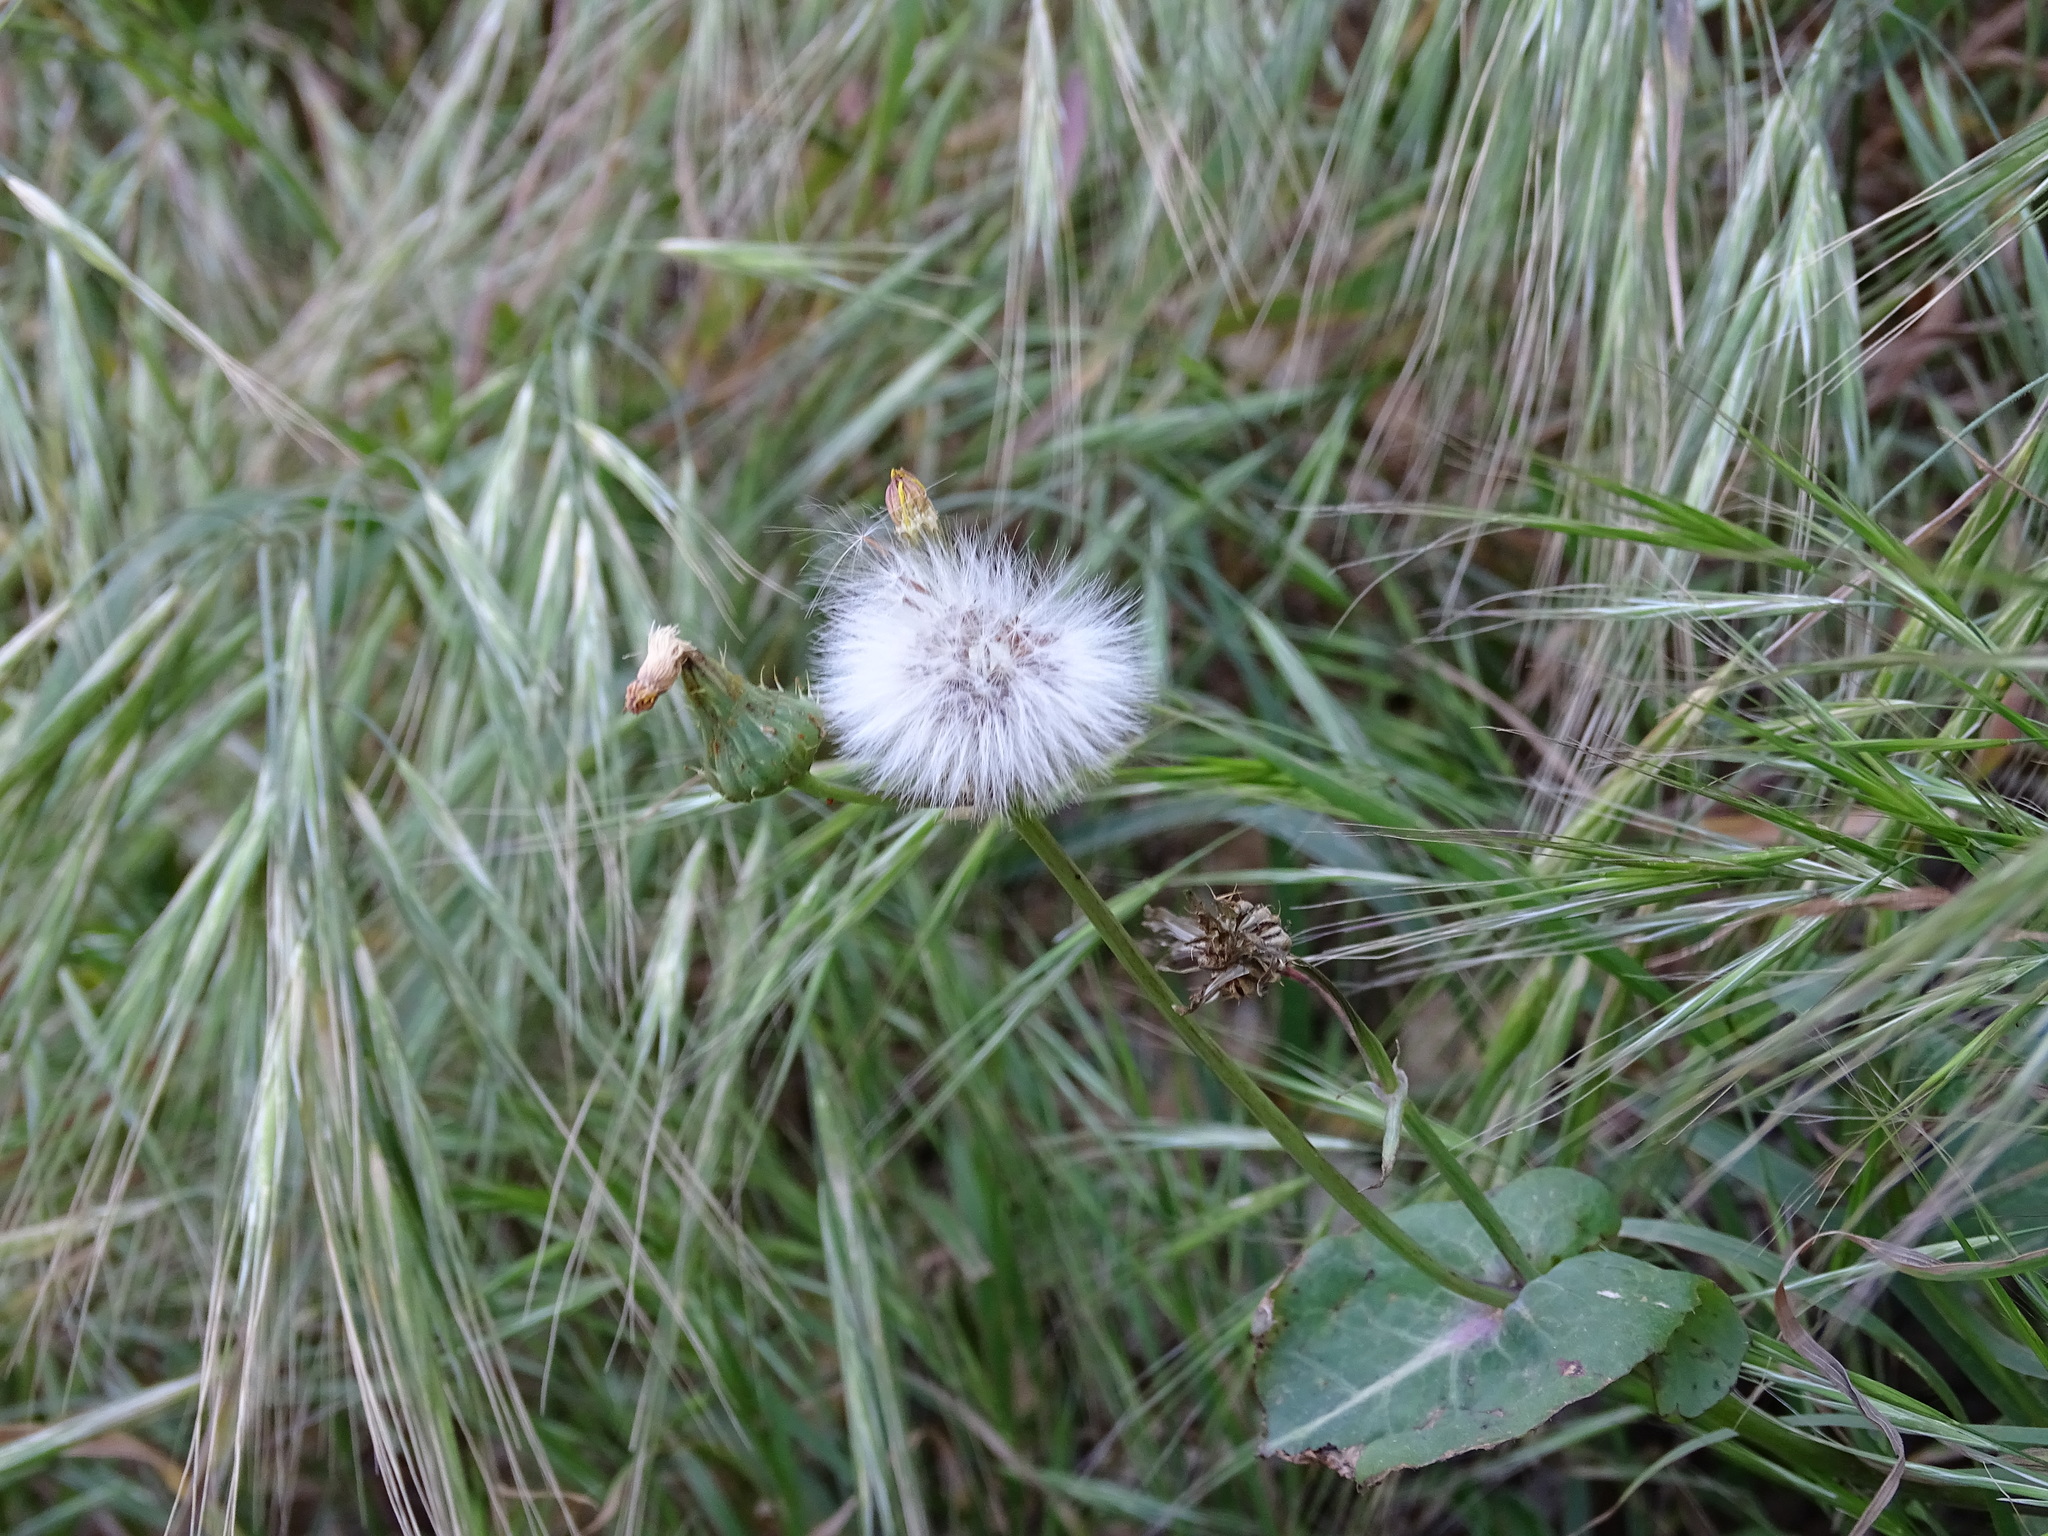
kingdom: Plantae
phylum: Tracheophyta
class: Magnoliopsida
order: Asterales
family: Asteraceae
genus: Sonchus
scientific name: Sonchus oleraceus
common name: Common sowthistle
